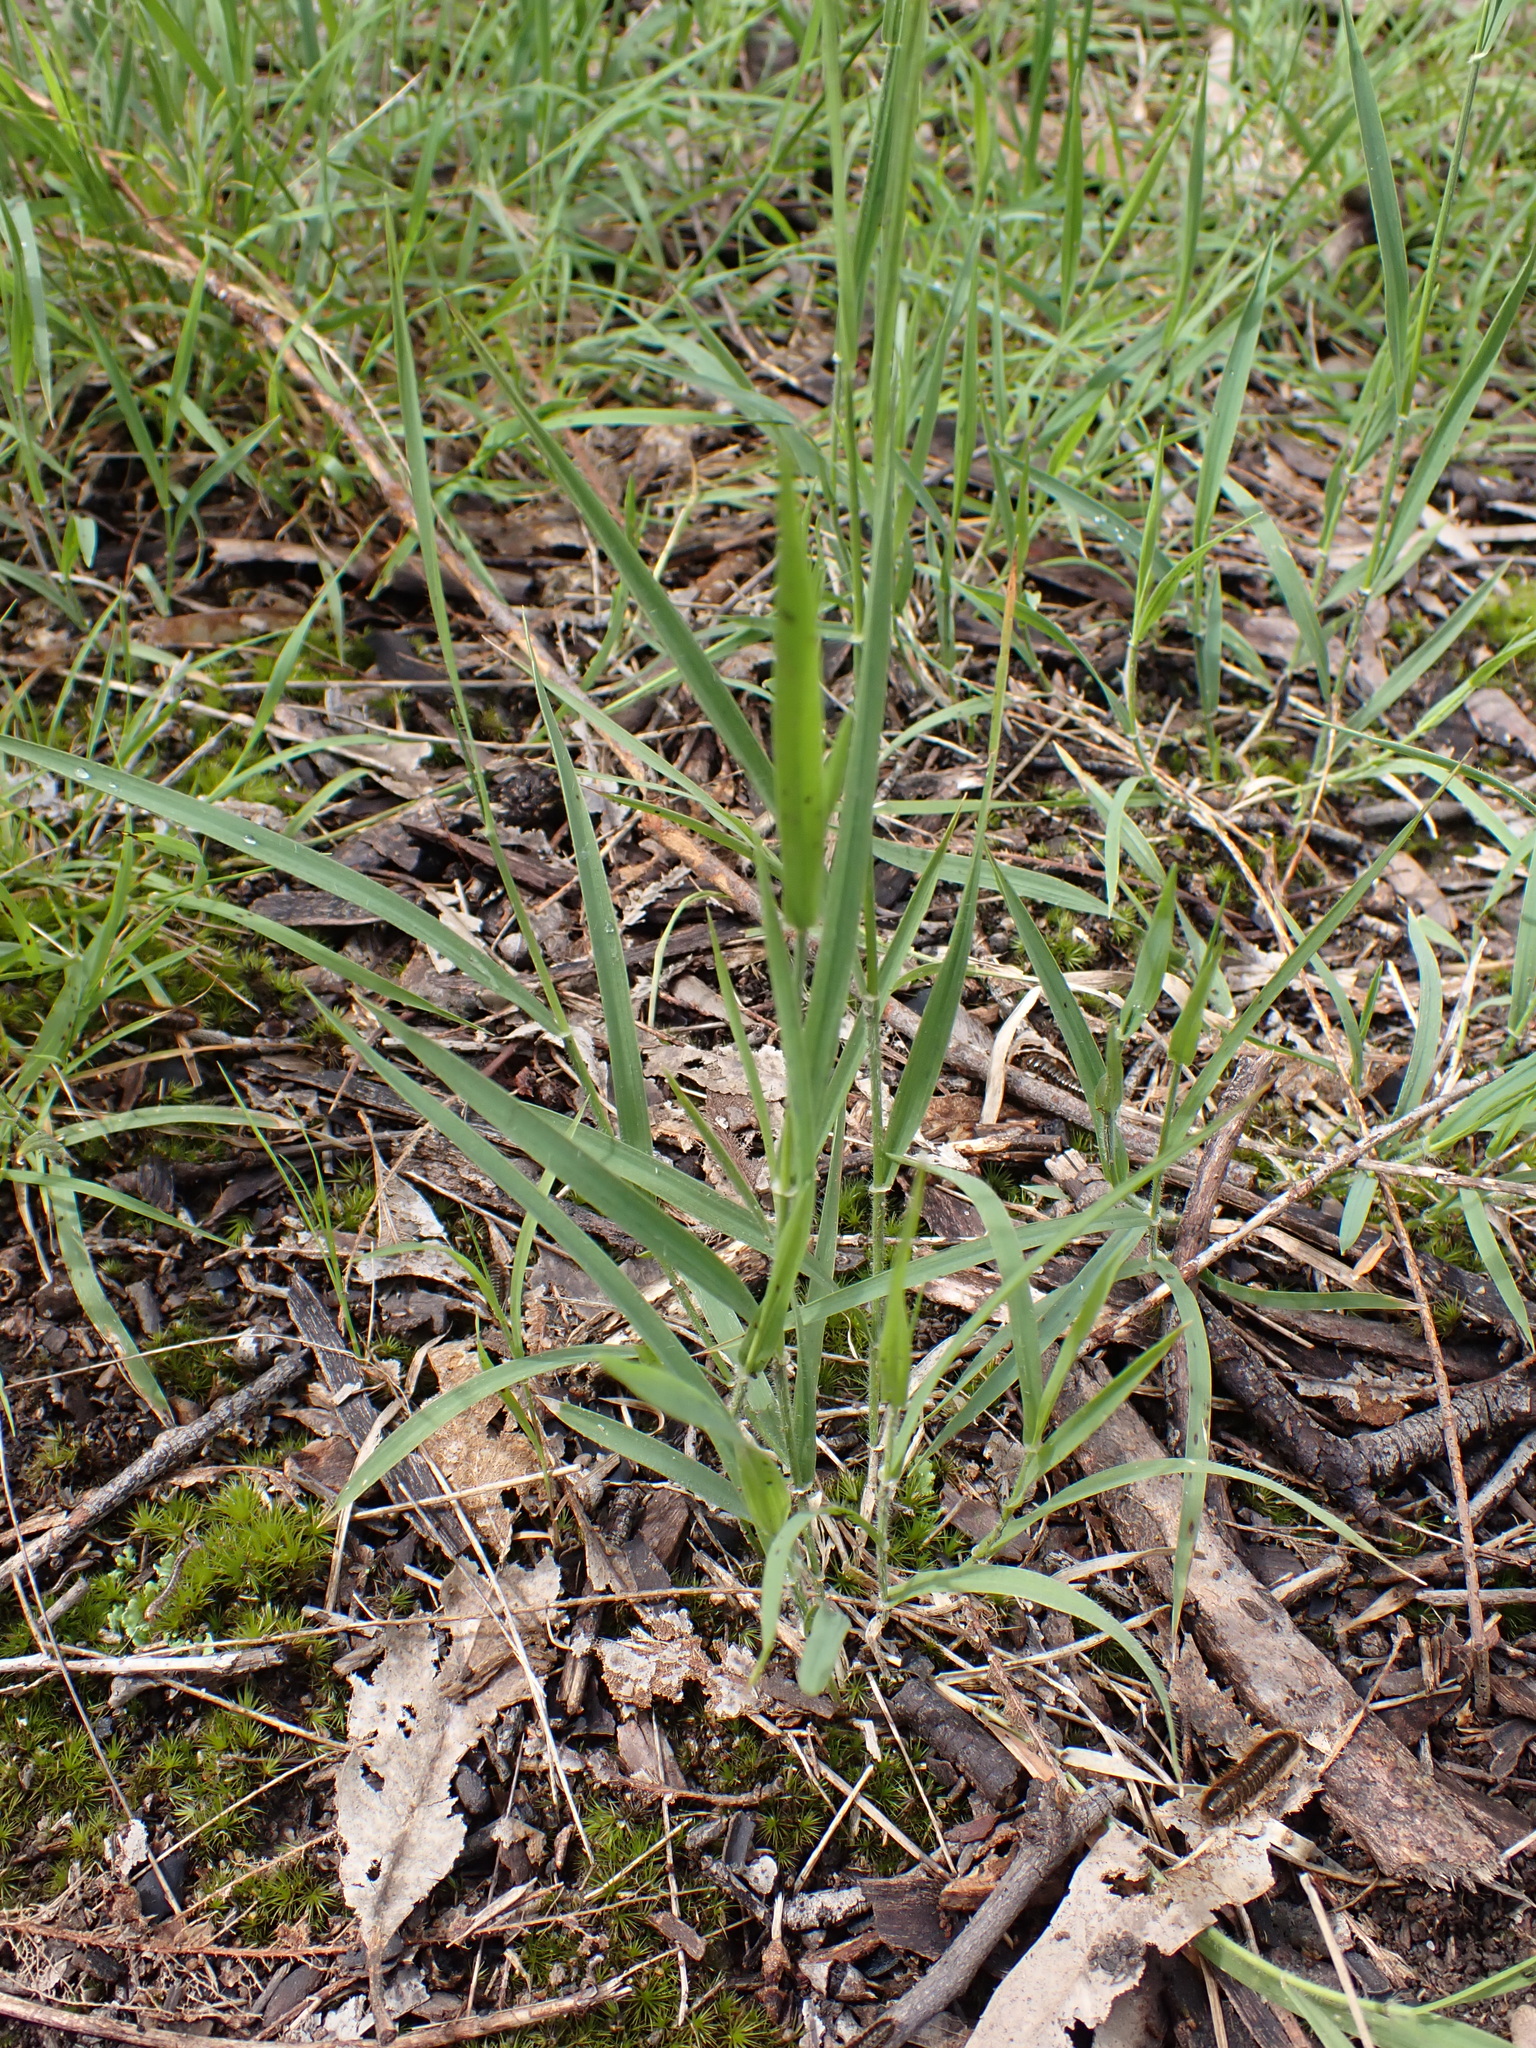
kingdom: Plantae
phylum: Tracheophyta
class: Liliopsida
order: Poales
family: Poaceae
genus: Microlaena
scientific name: Microlaena stipoides
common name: Meadow ricegrass
